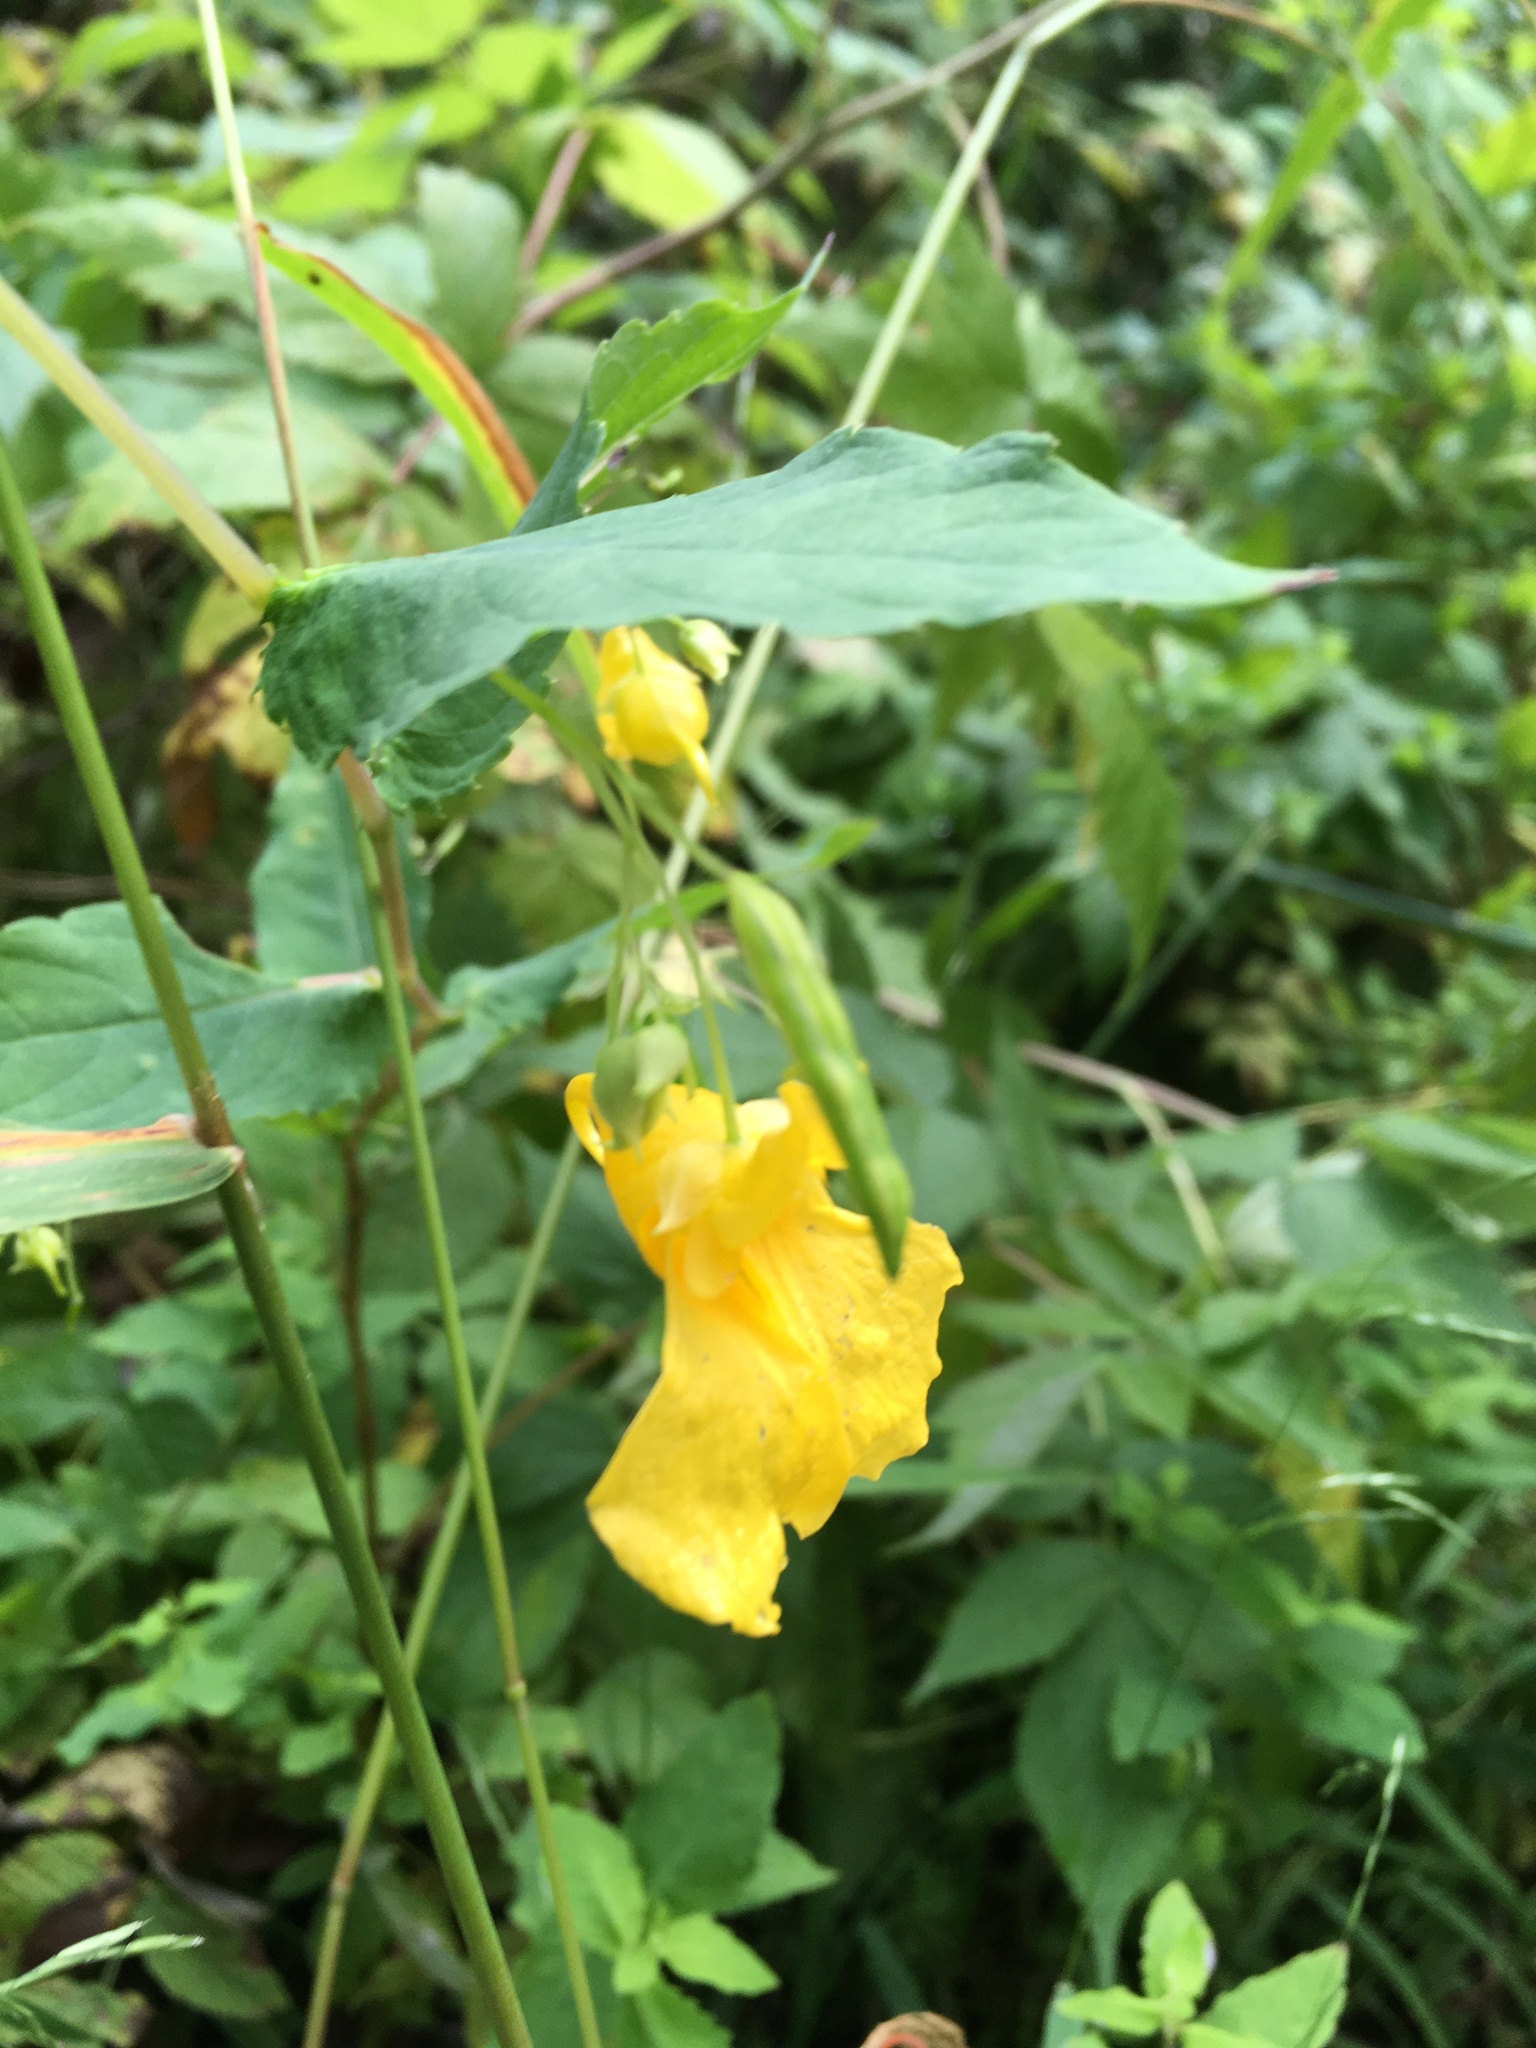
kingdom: Plantae
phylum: Tracheophyta
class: Magnoliopsida
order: Ericales
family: Balsaminaceae
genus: Impatiens
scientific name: Impatiens noli-tangere
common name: Touch-me-not balsam
